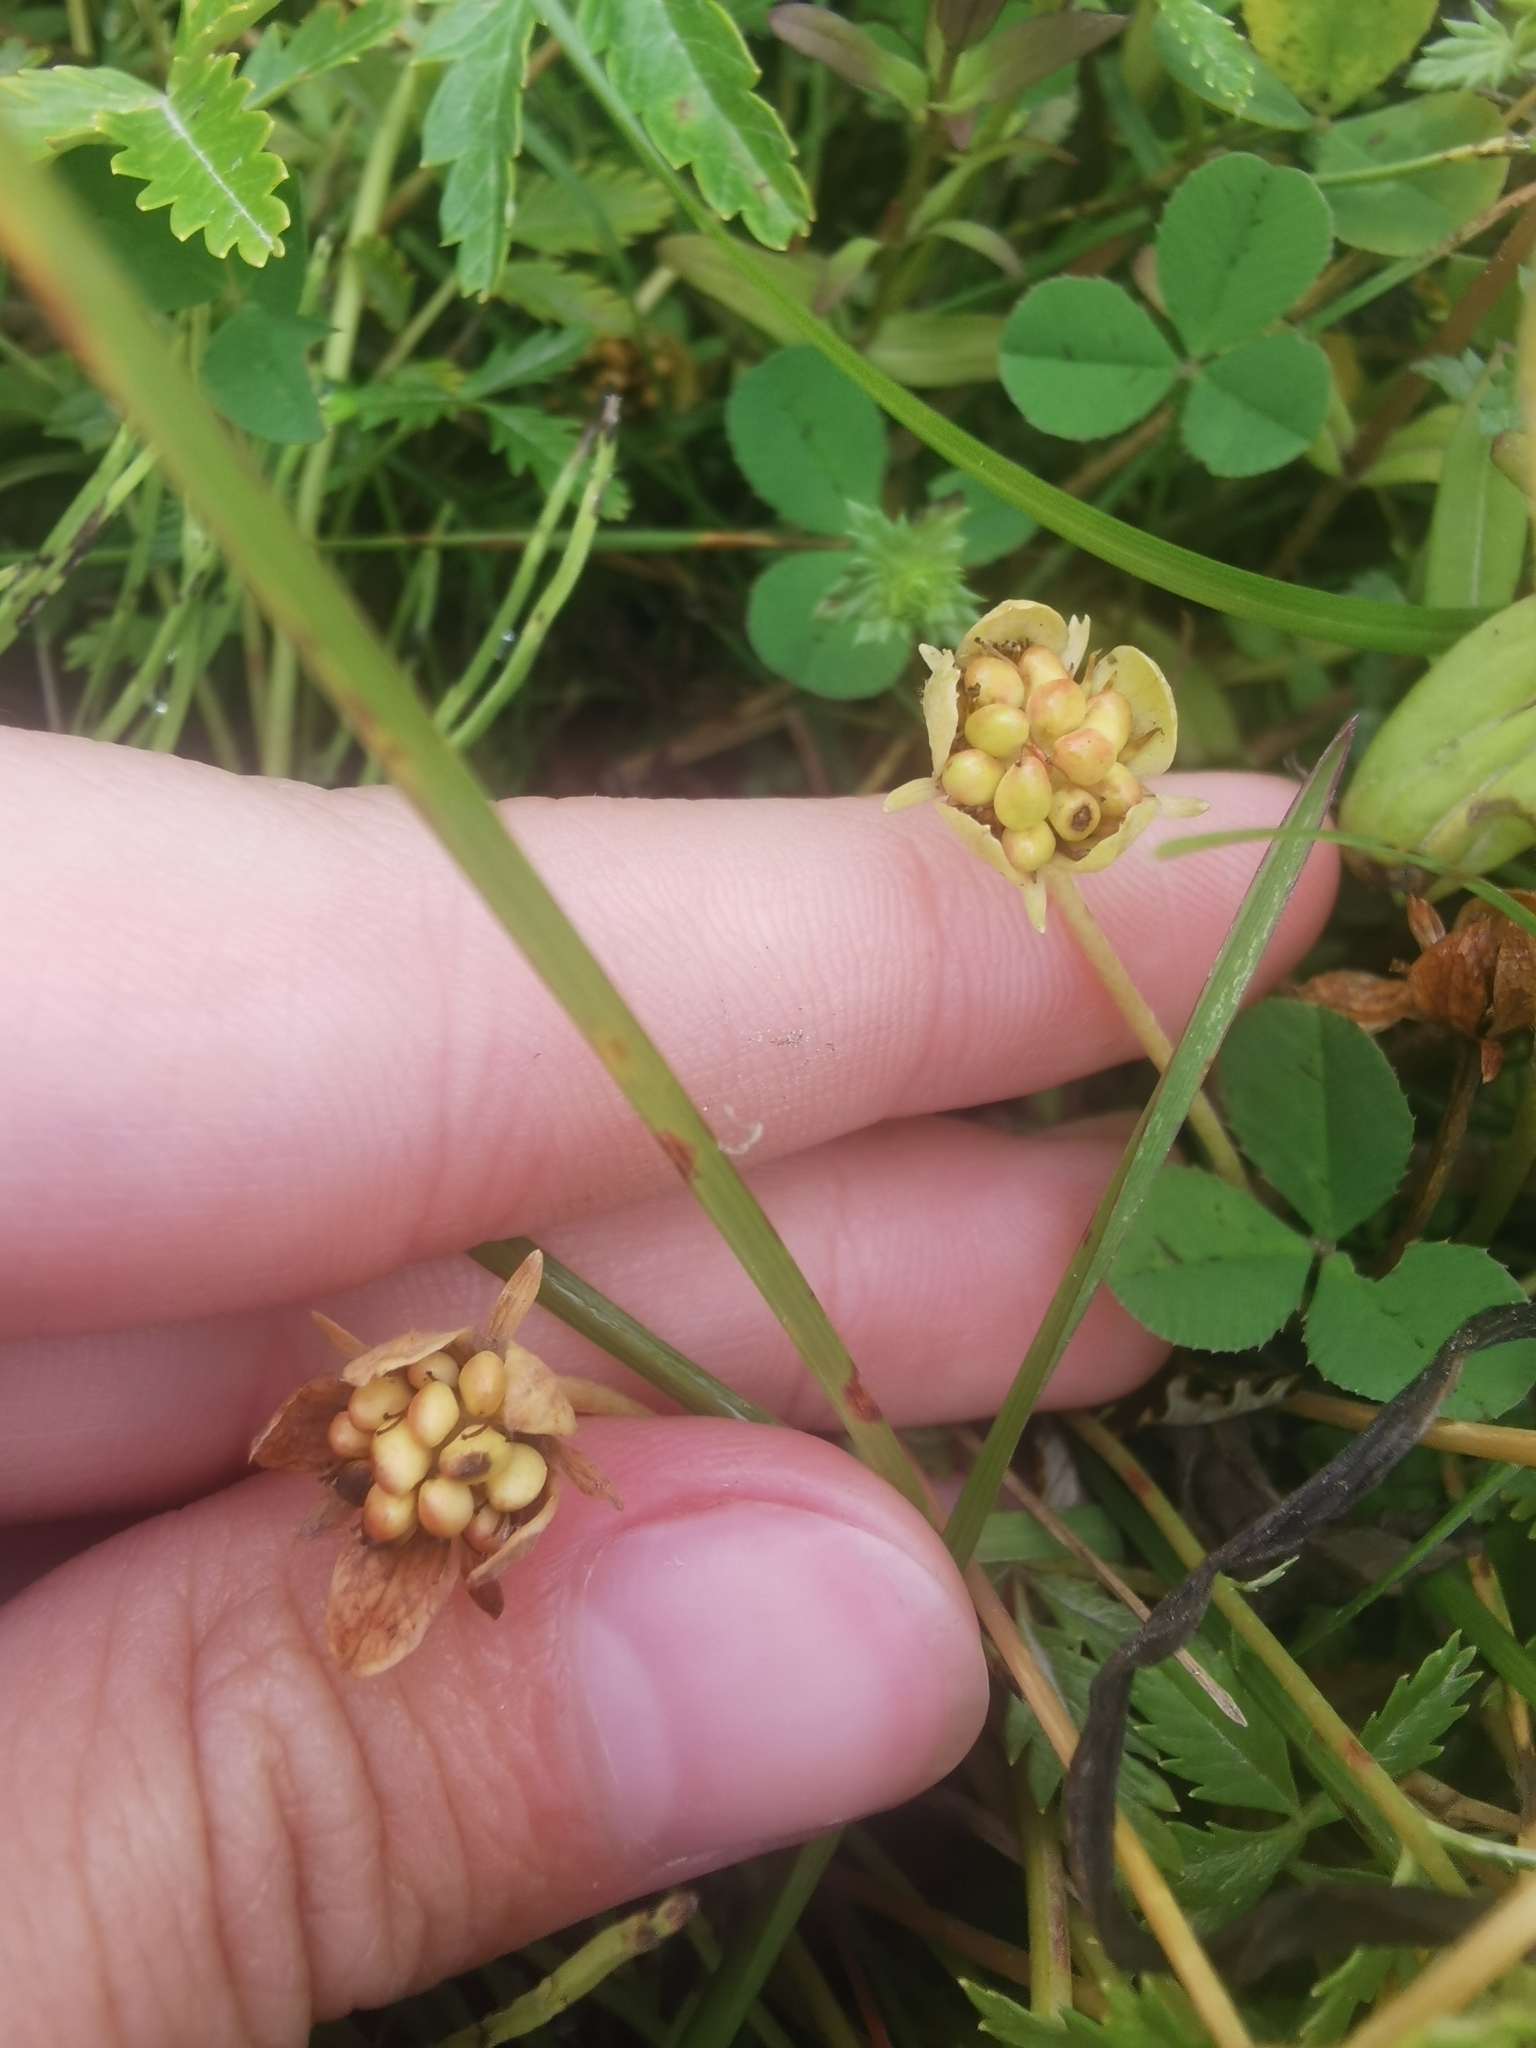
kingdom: Plantae
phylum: Tracheophyta
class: Magnoliopsida
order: Rosales
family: Rosaceae
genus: Argentina
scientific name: Argentina anserina
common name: Common silverweed
